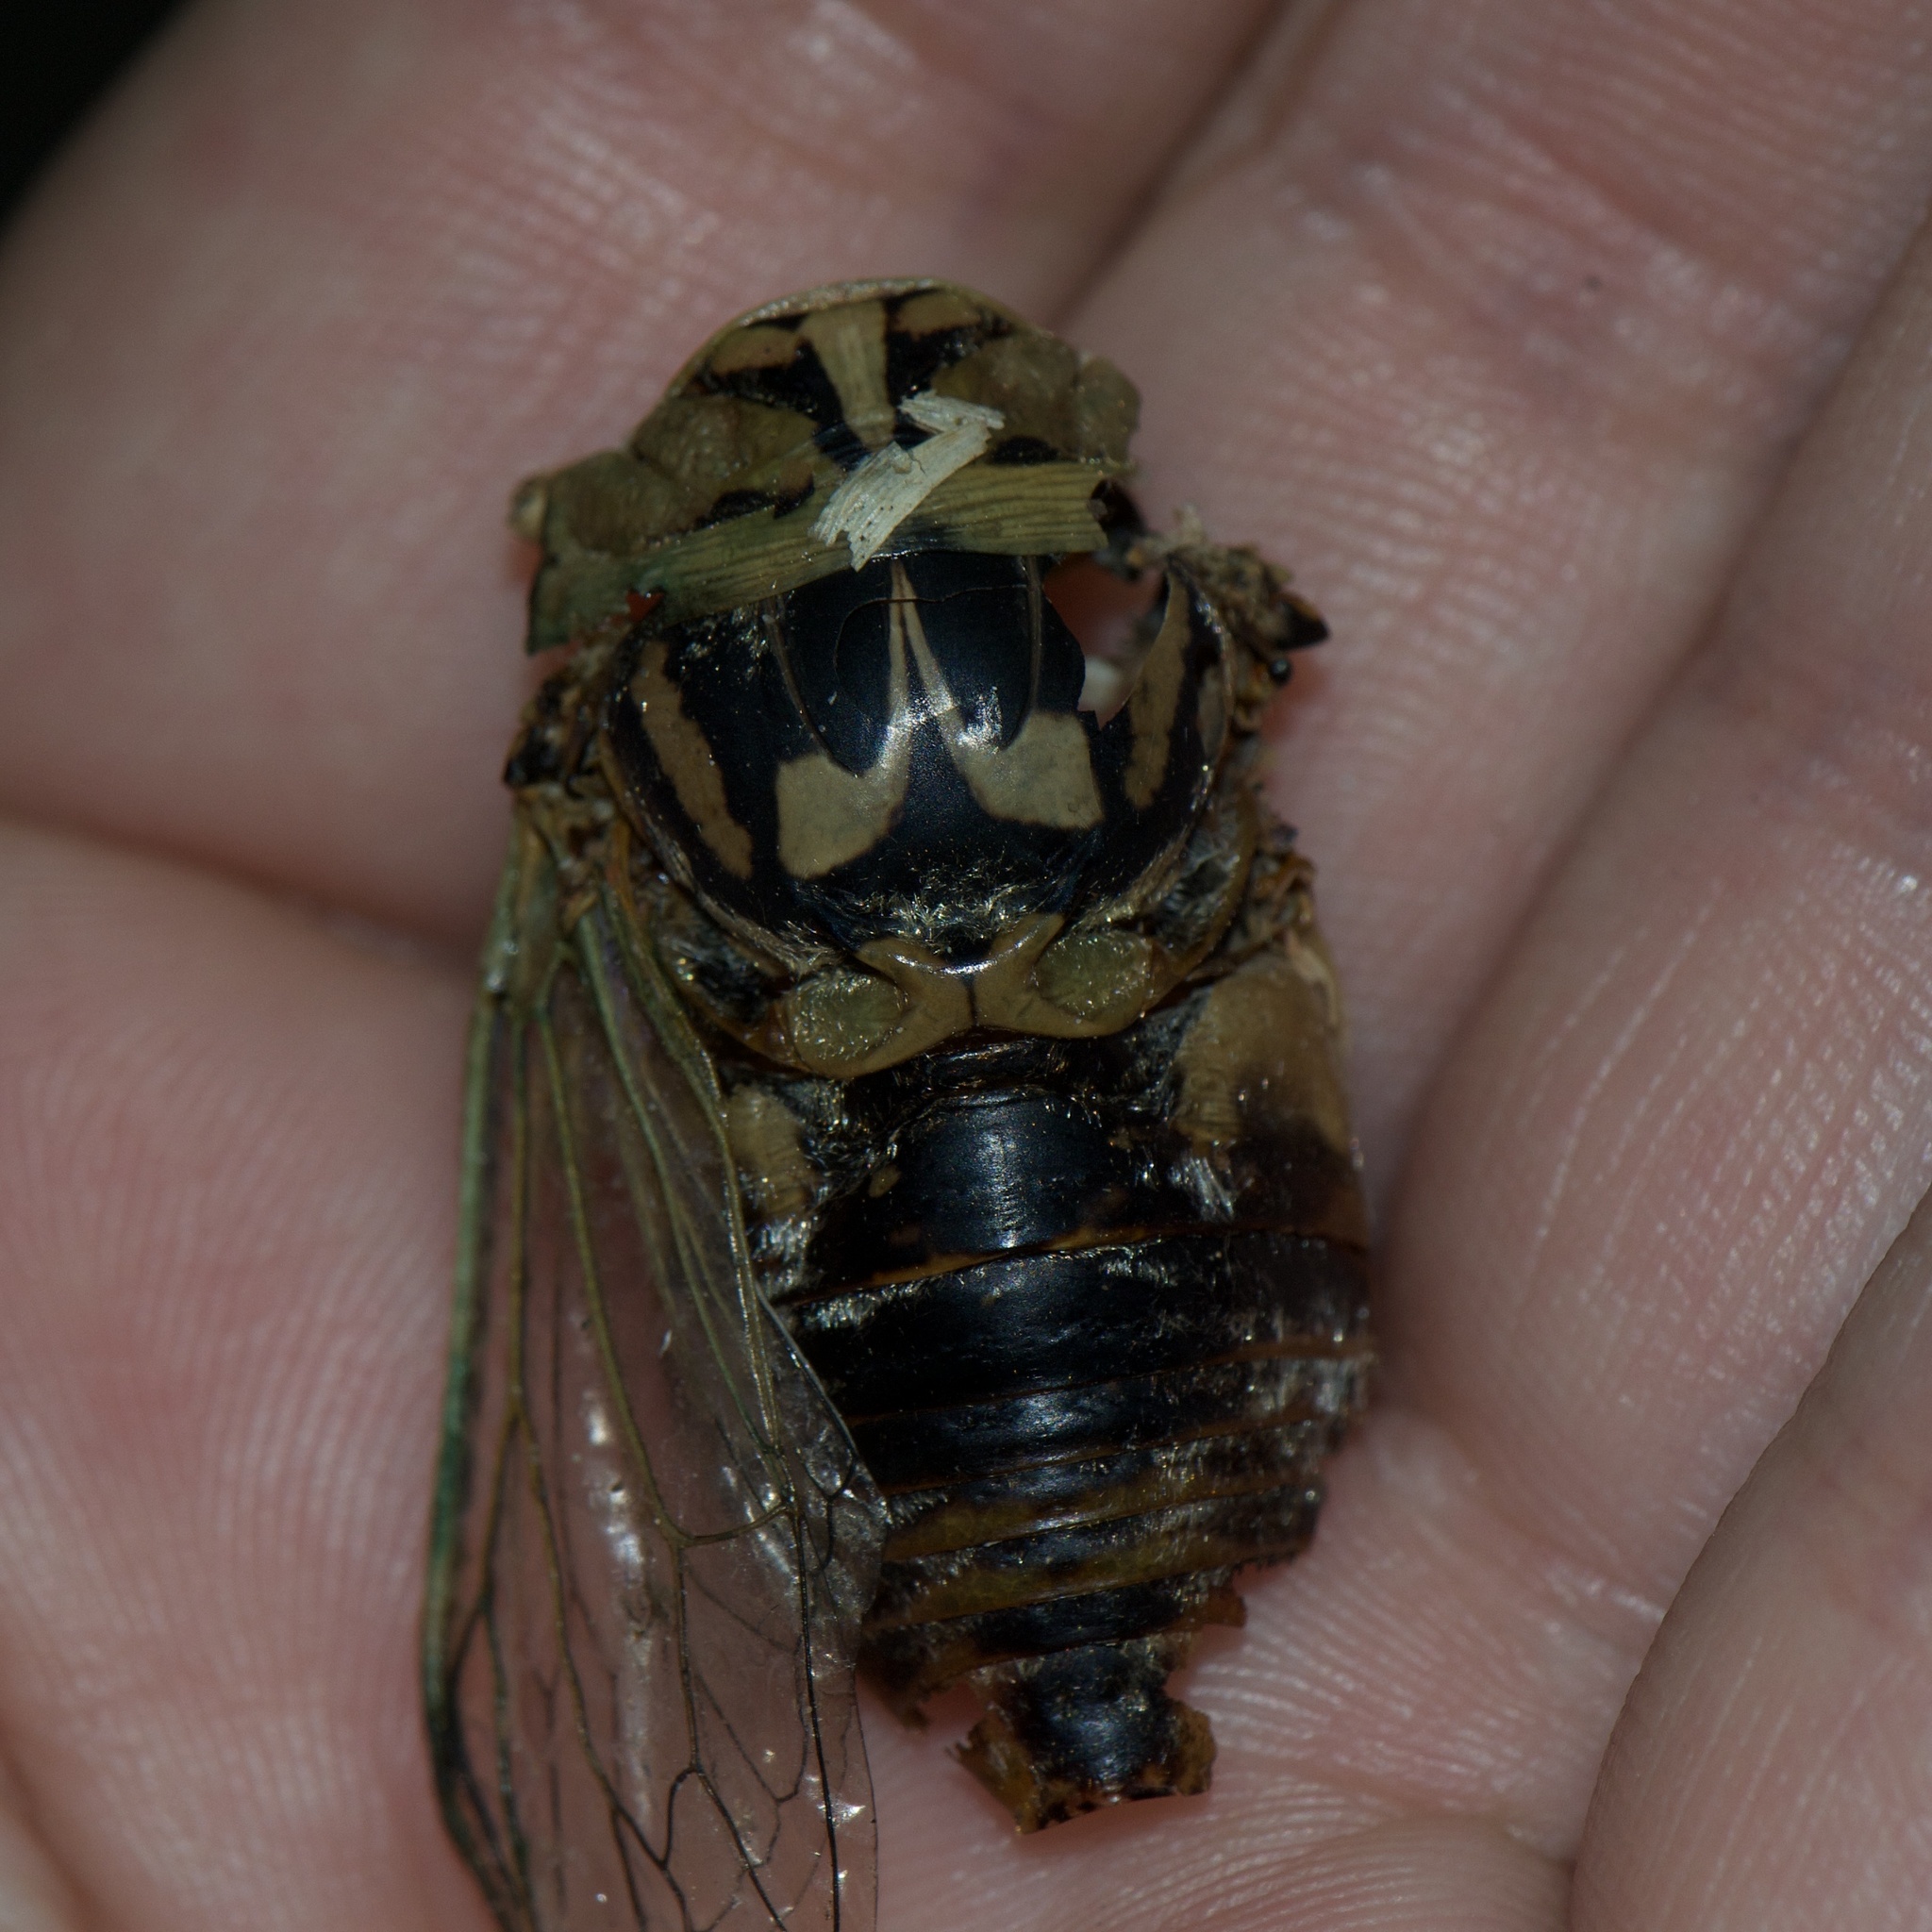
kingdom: Animalia
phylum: Arthropoda
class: Insecta
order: Hemiptera
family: Cicadidae
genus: Megatibicen
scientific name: Megatibicen resh
